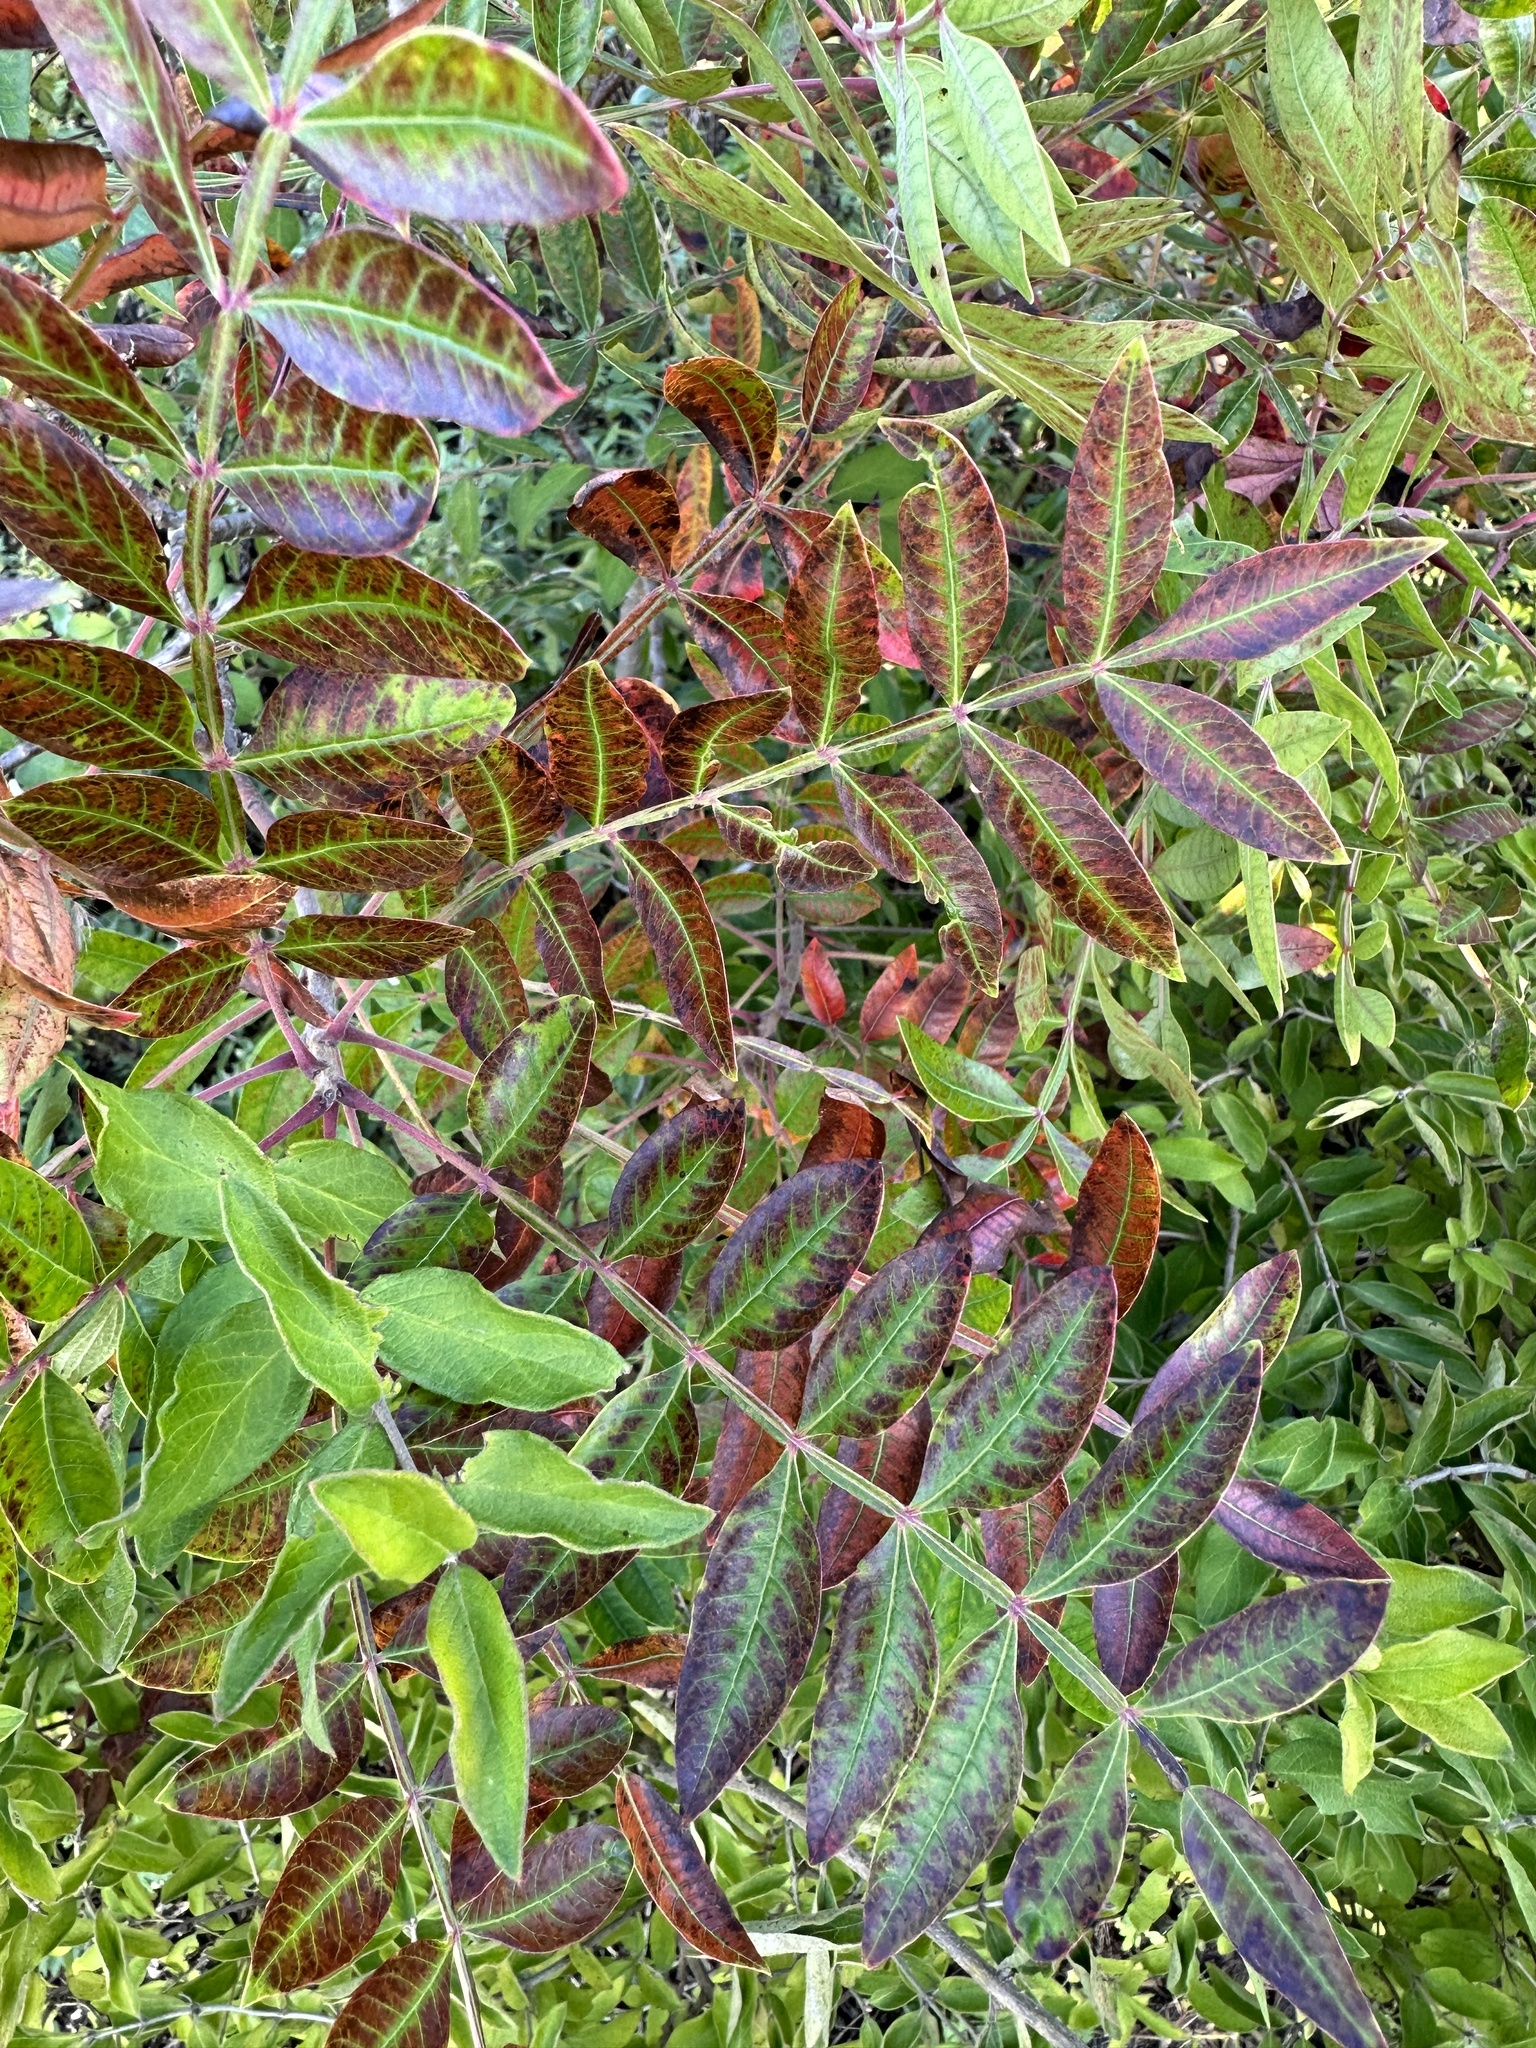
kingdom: Plantae
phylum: Tracheophyta
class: Magnoliopsida
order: Sapindales
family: Anacardiaceae
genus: Rhus
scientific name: Rhus copallina
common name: Shining sumac
